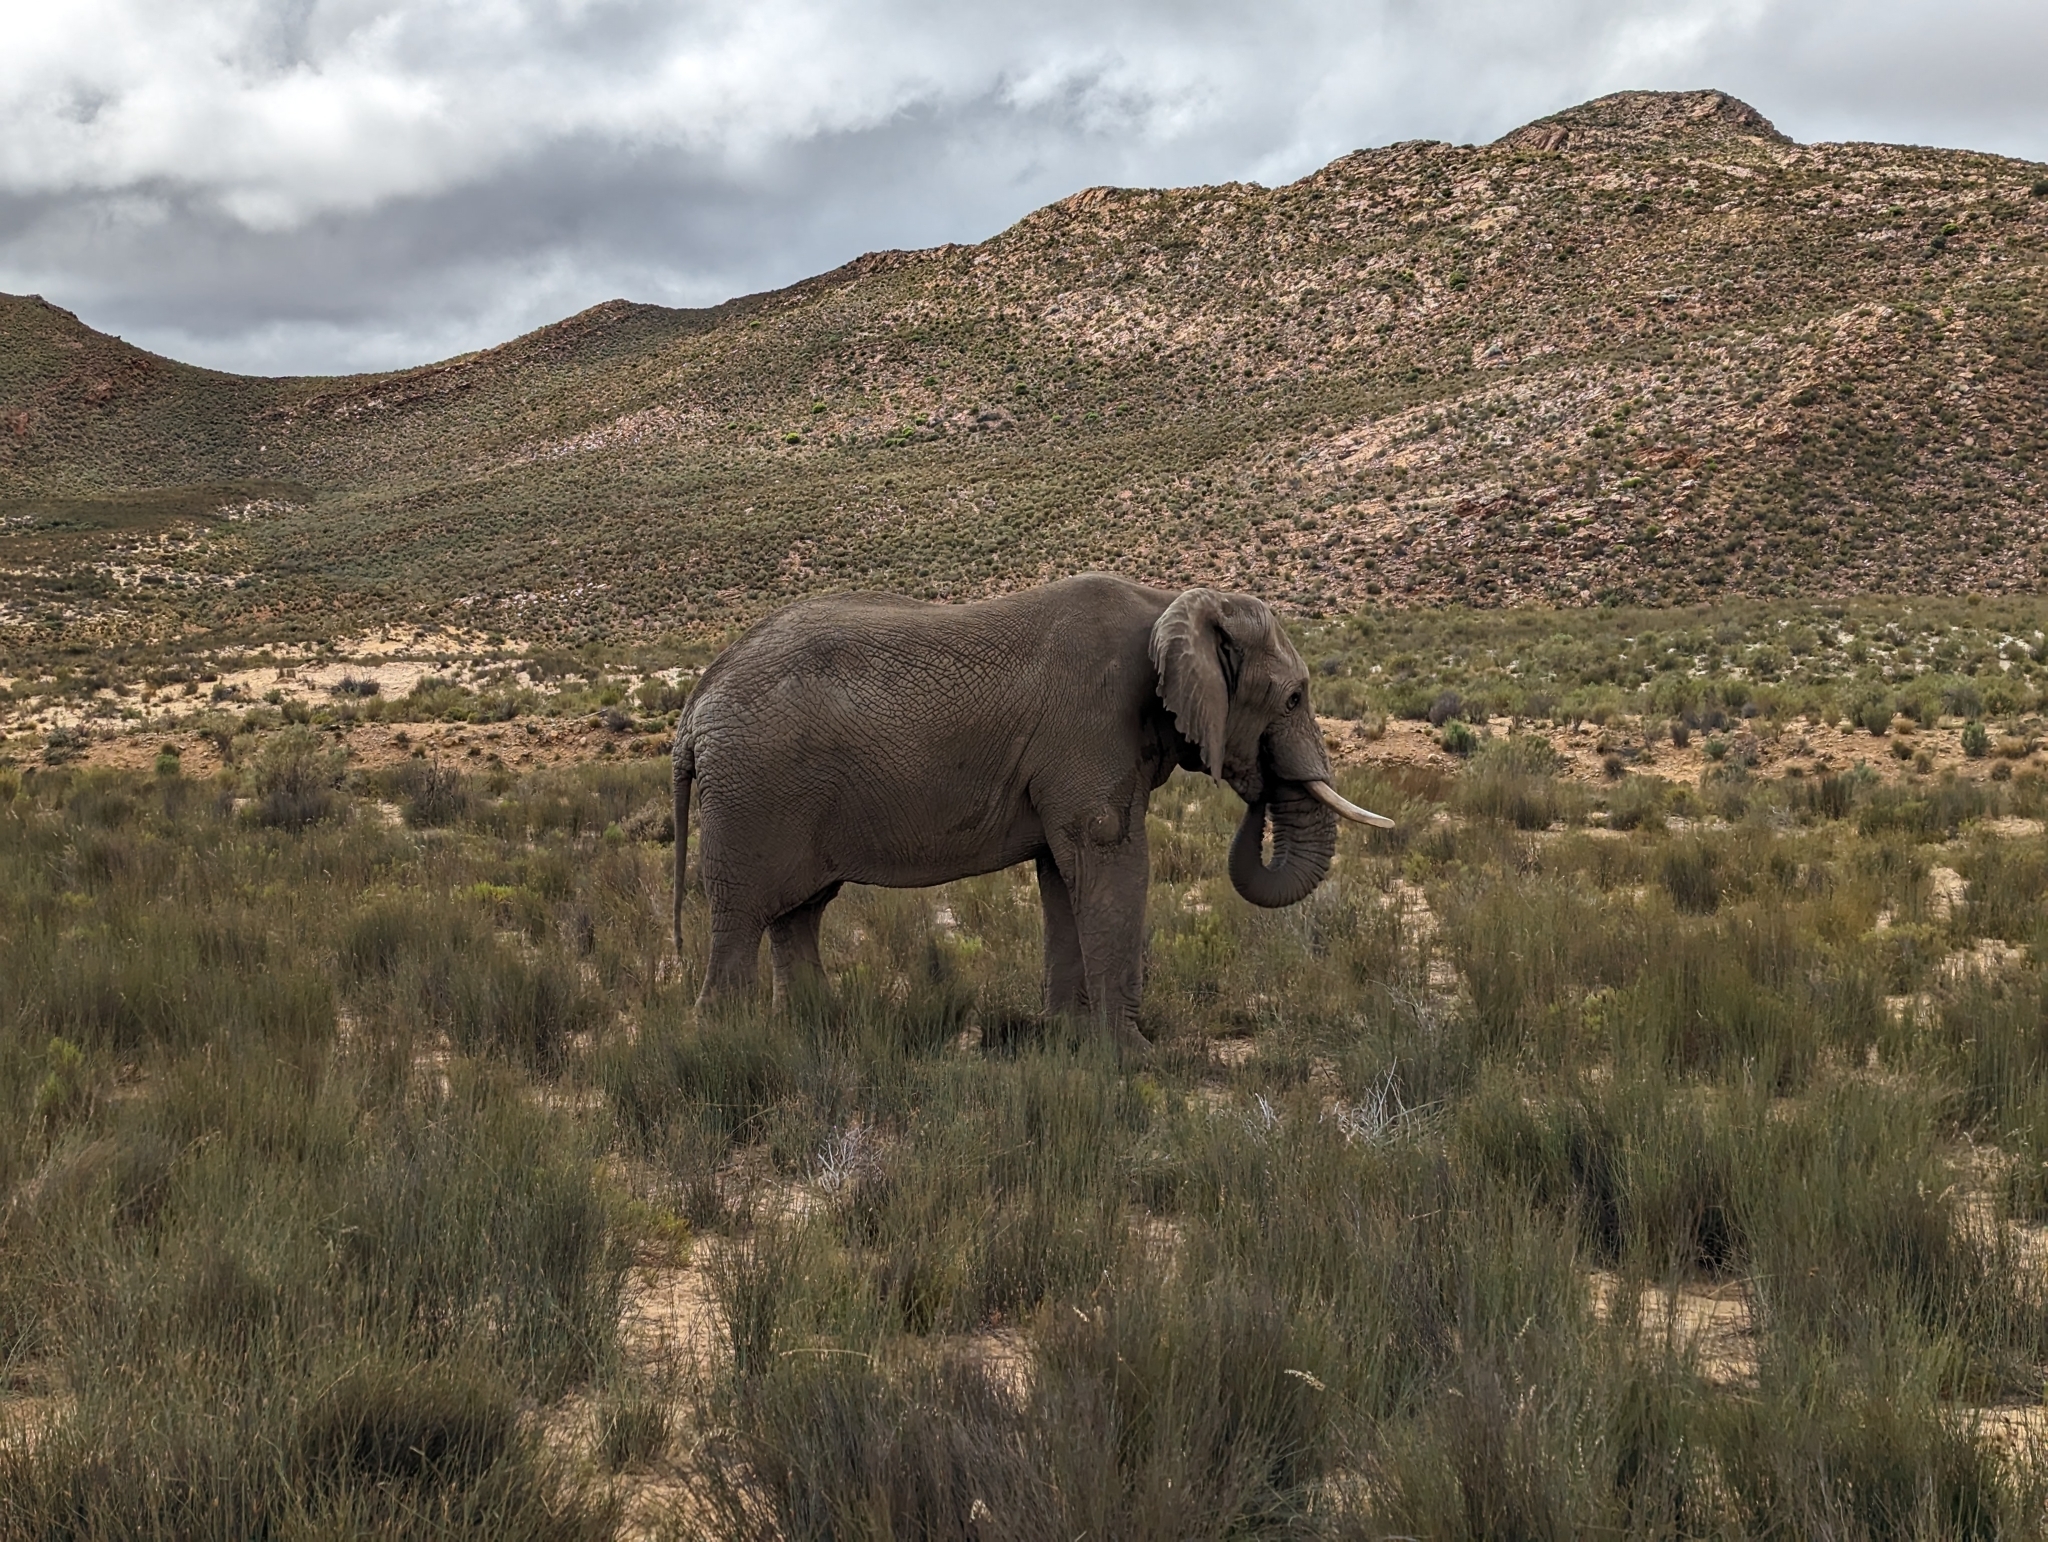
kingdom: Animalia
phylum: Chordata
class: Mammalia
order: Proboscidea
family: Elephantidae
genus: Loxodonta
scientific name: Loxodonta africana
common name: African elephant
